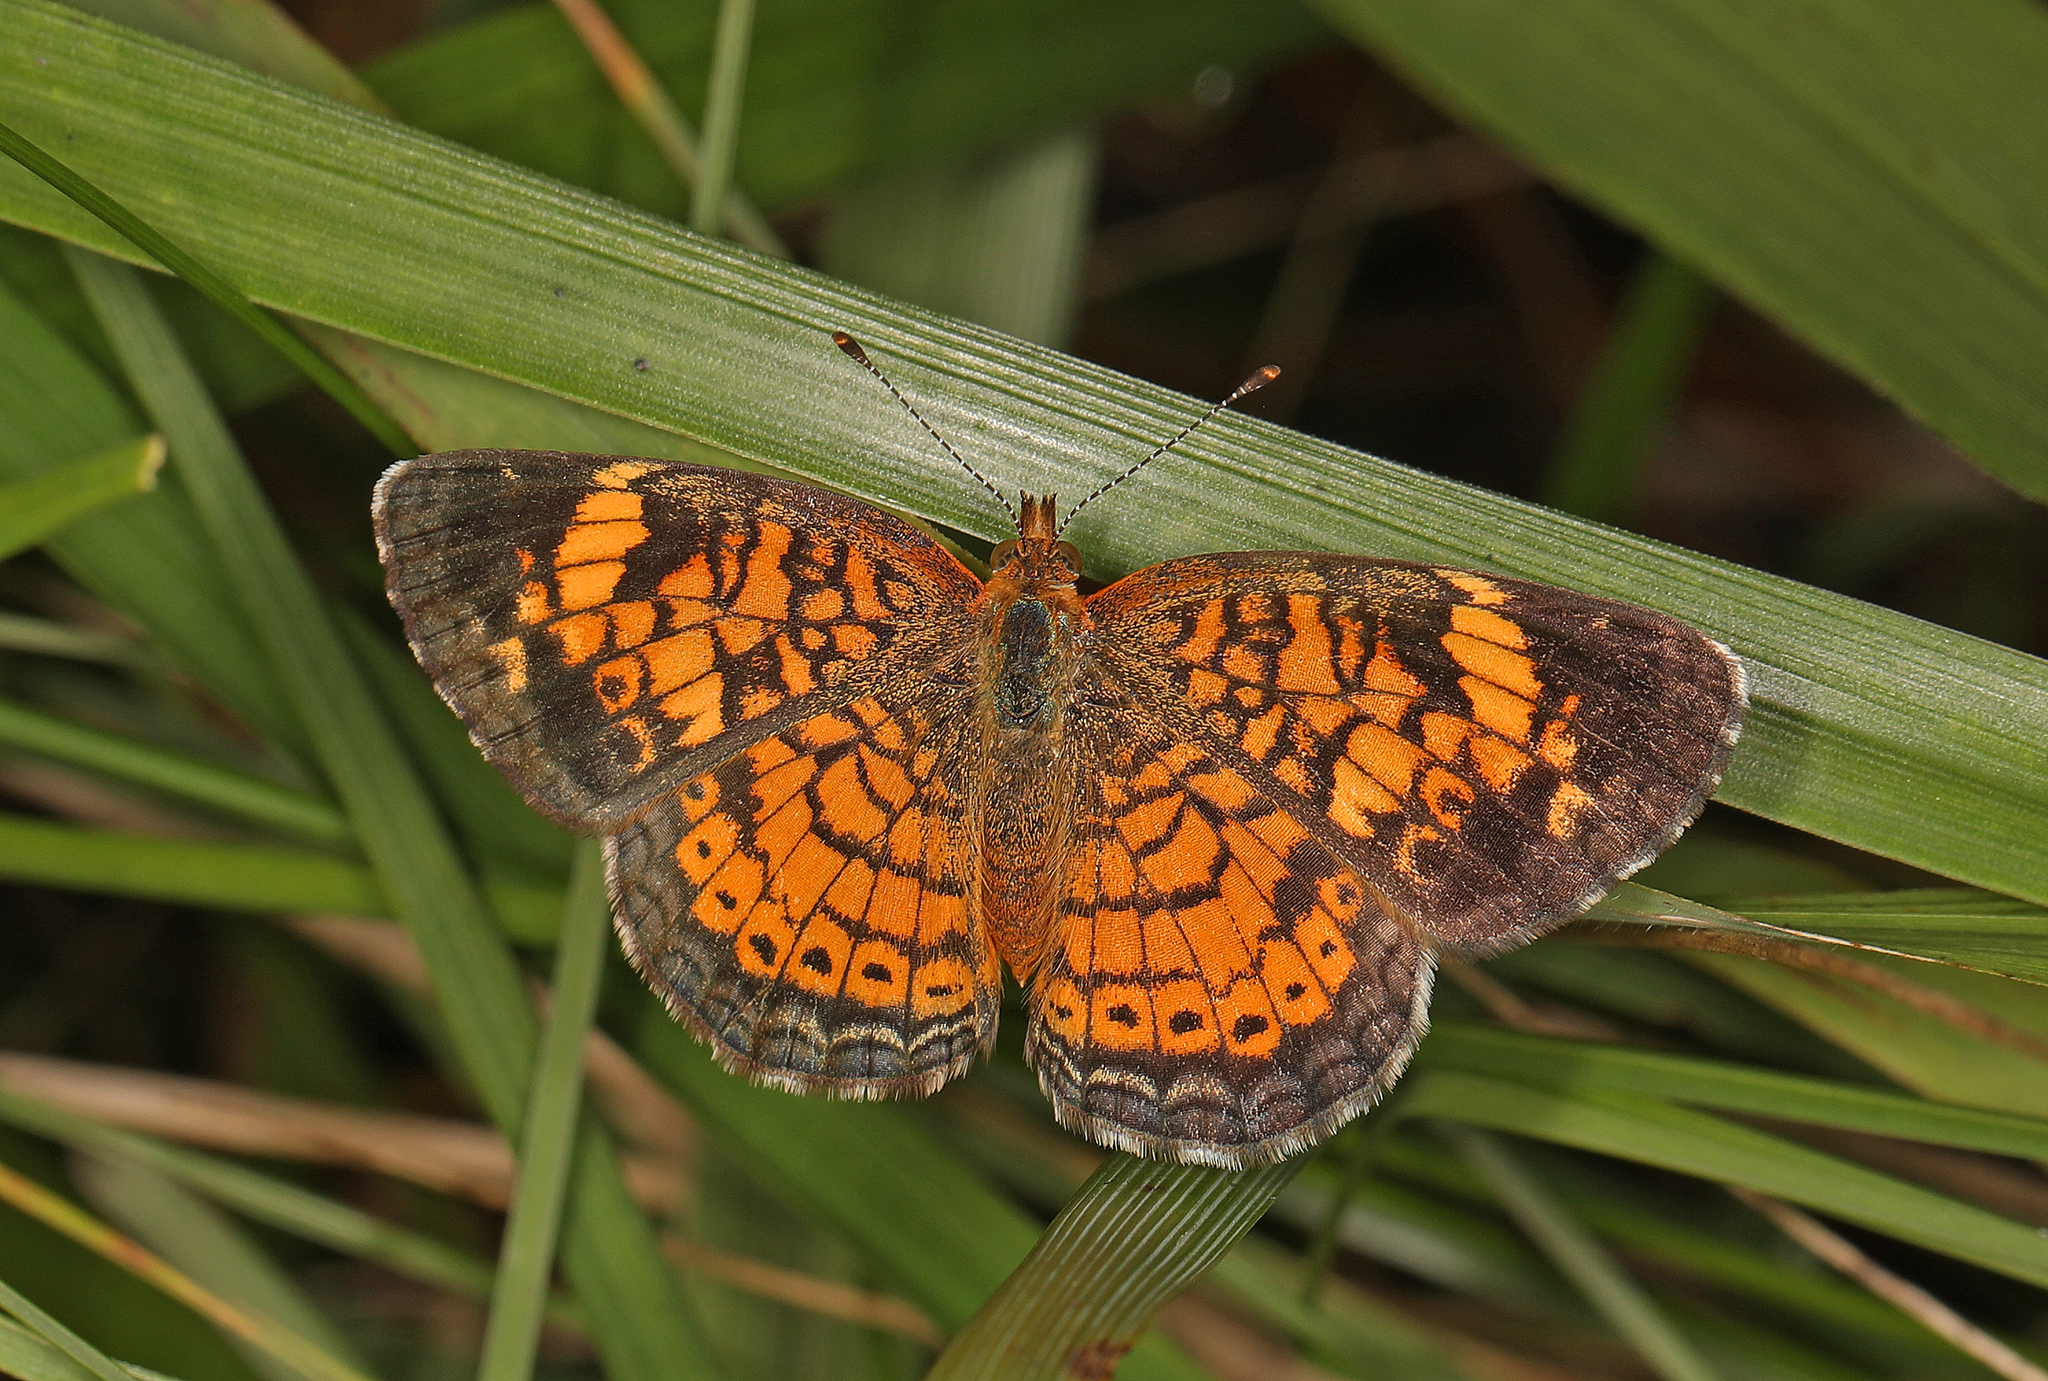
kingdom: Animalia
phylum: Arthropoda
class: Insecta
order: Lepidoptera
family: Nymphalidae
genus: Phyciodes
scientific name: Phyciodes tharos
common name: Pearl crescent
